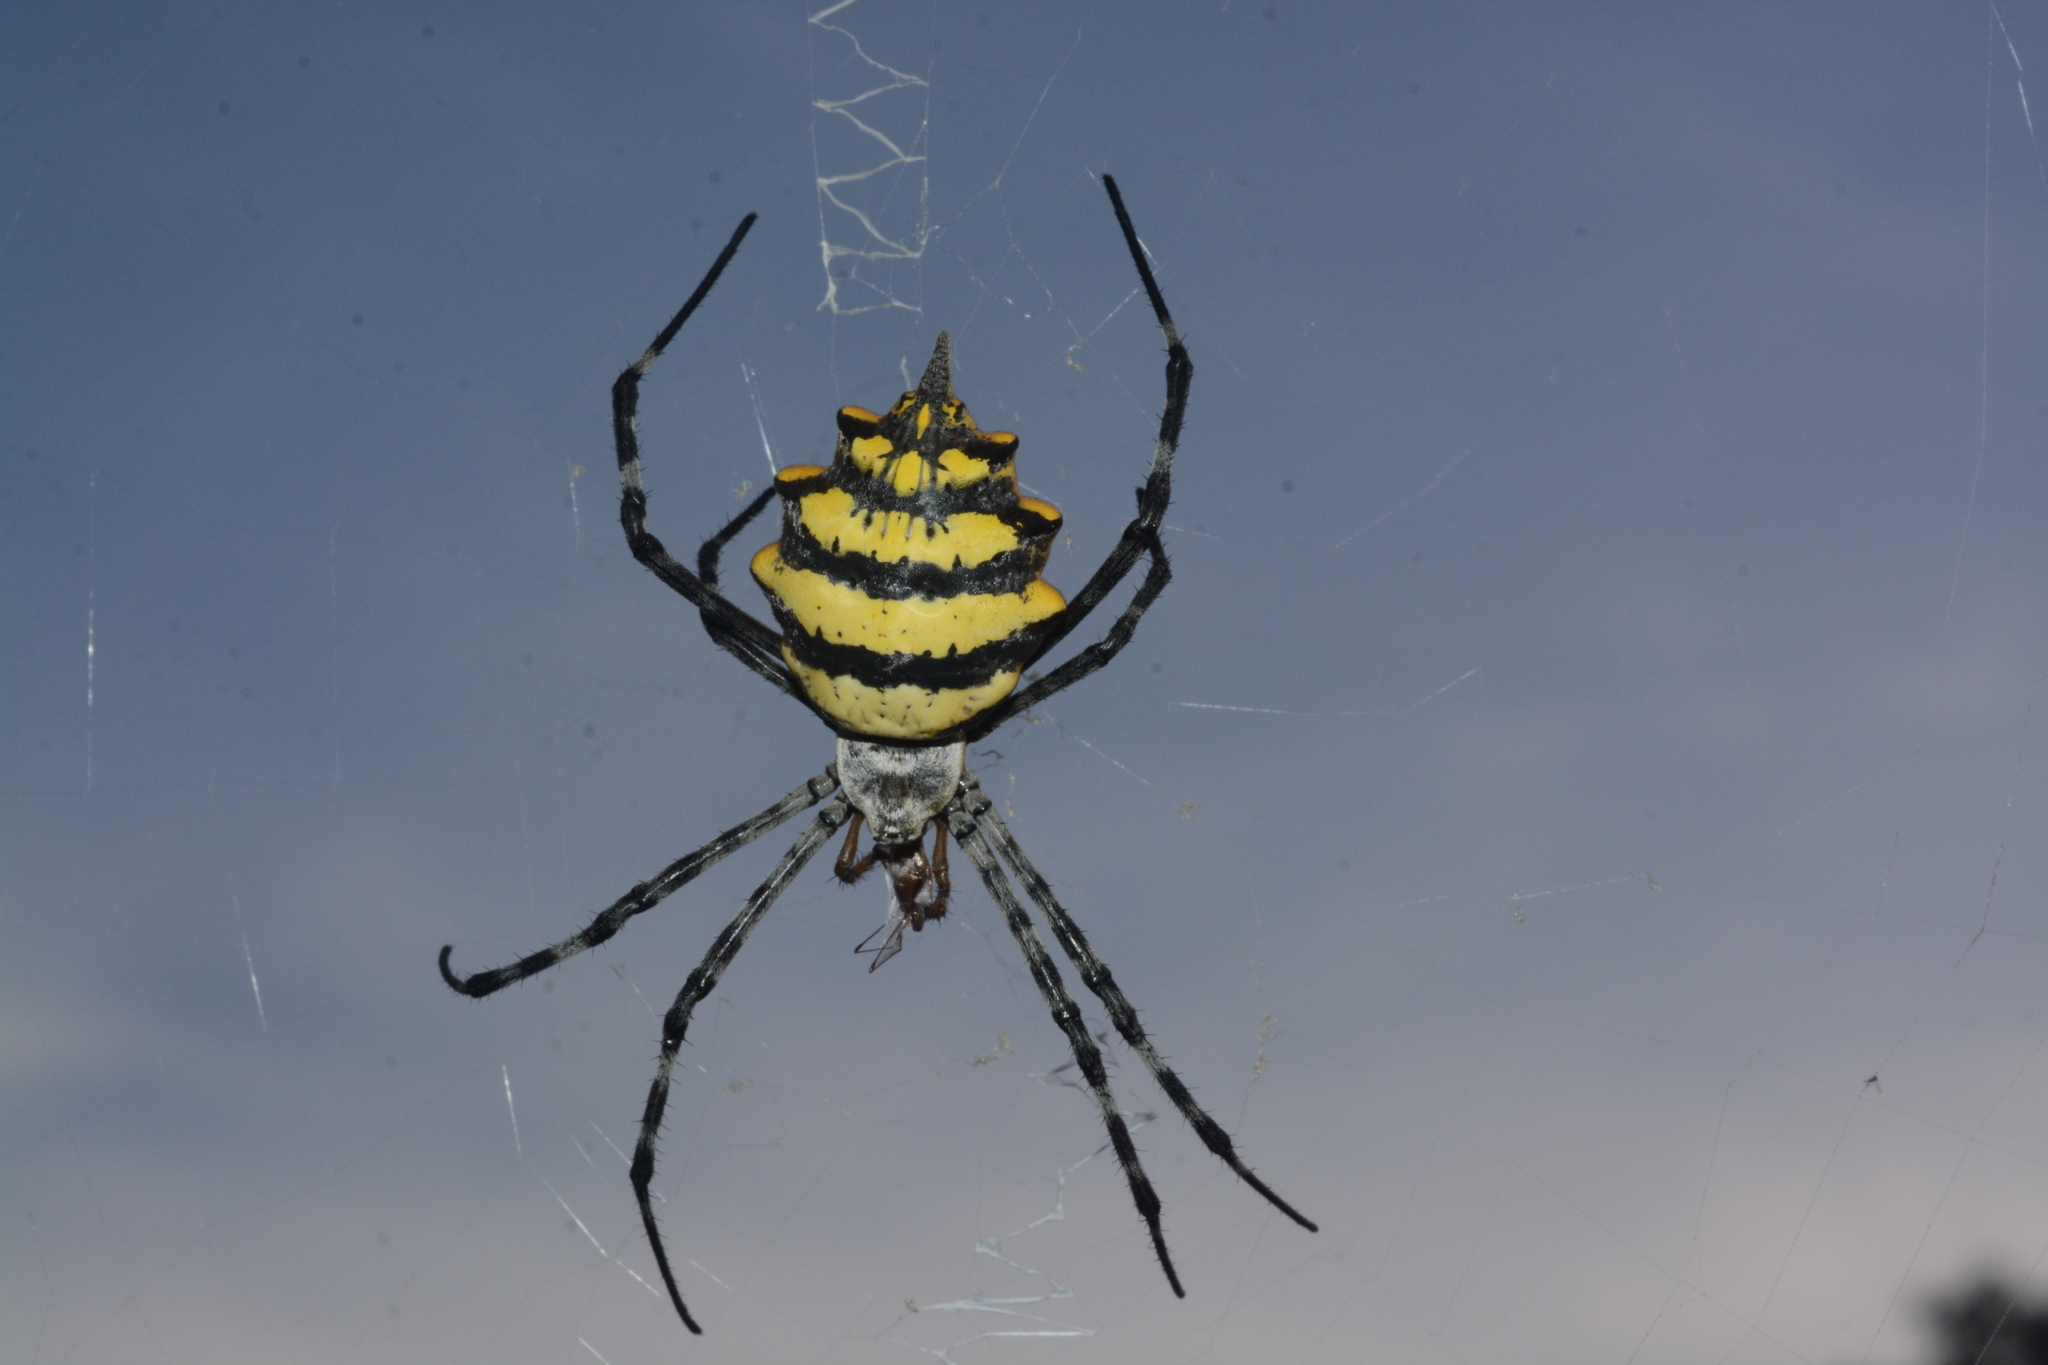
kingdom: Animalia
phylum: Arthropoda
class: Arachnida
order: Araneae
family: Araneidae
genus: Argiope
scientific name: Argiope australis
